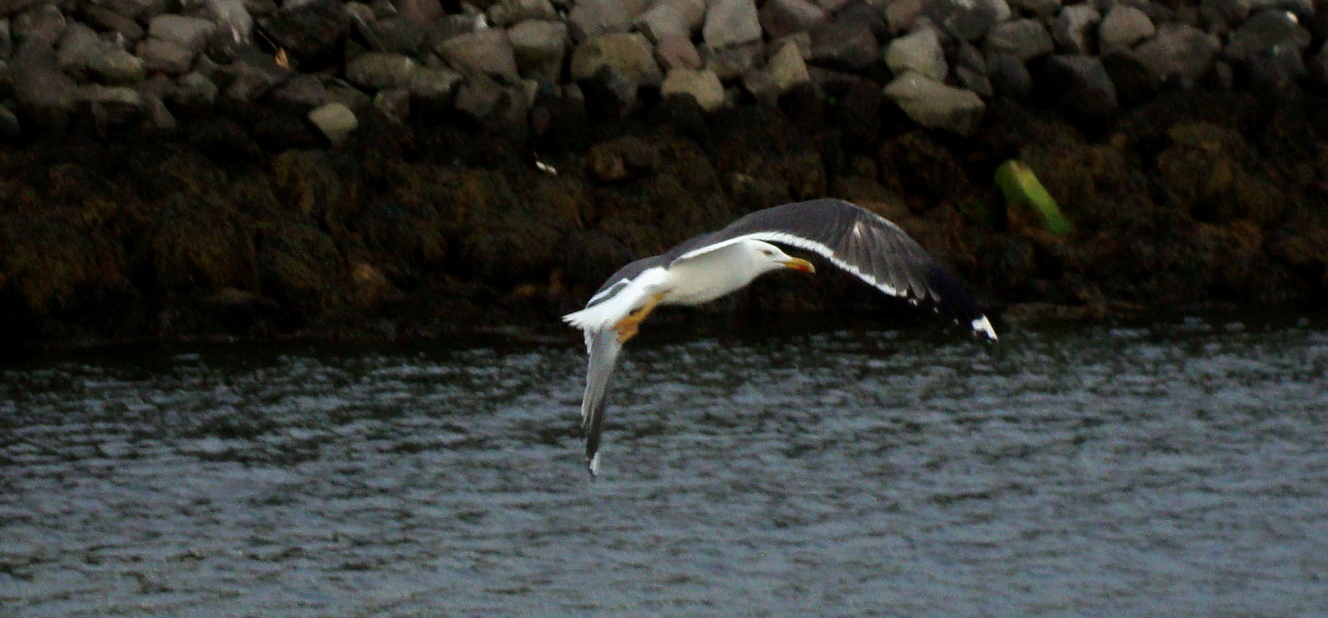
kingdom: Animalia
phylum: Chordata
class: Aves
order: Charadriiformes
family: Laridae
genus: Larus
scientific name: Larus fuscus
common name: Lesser black-backed gull
